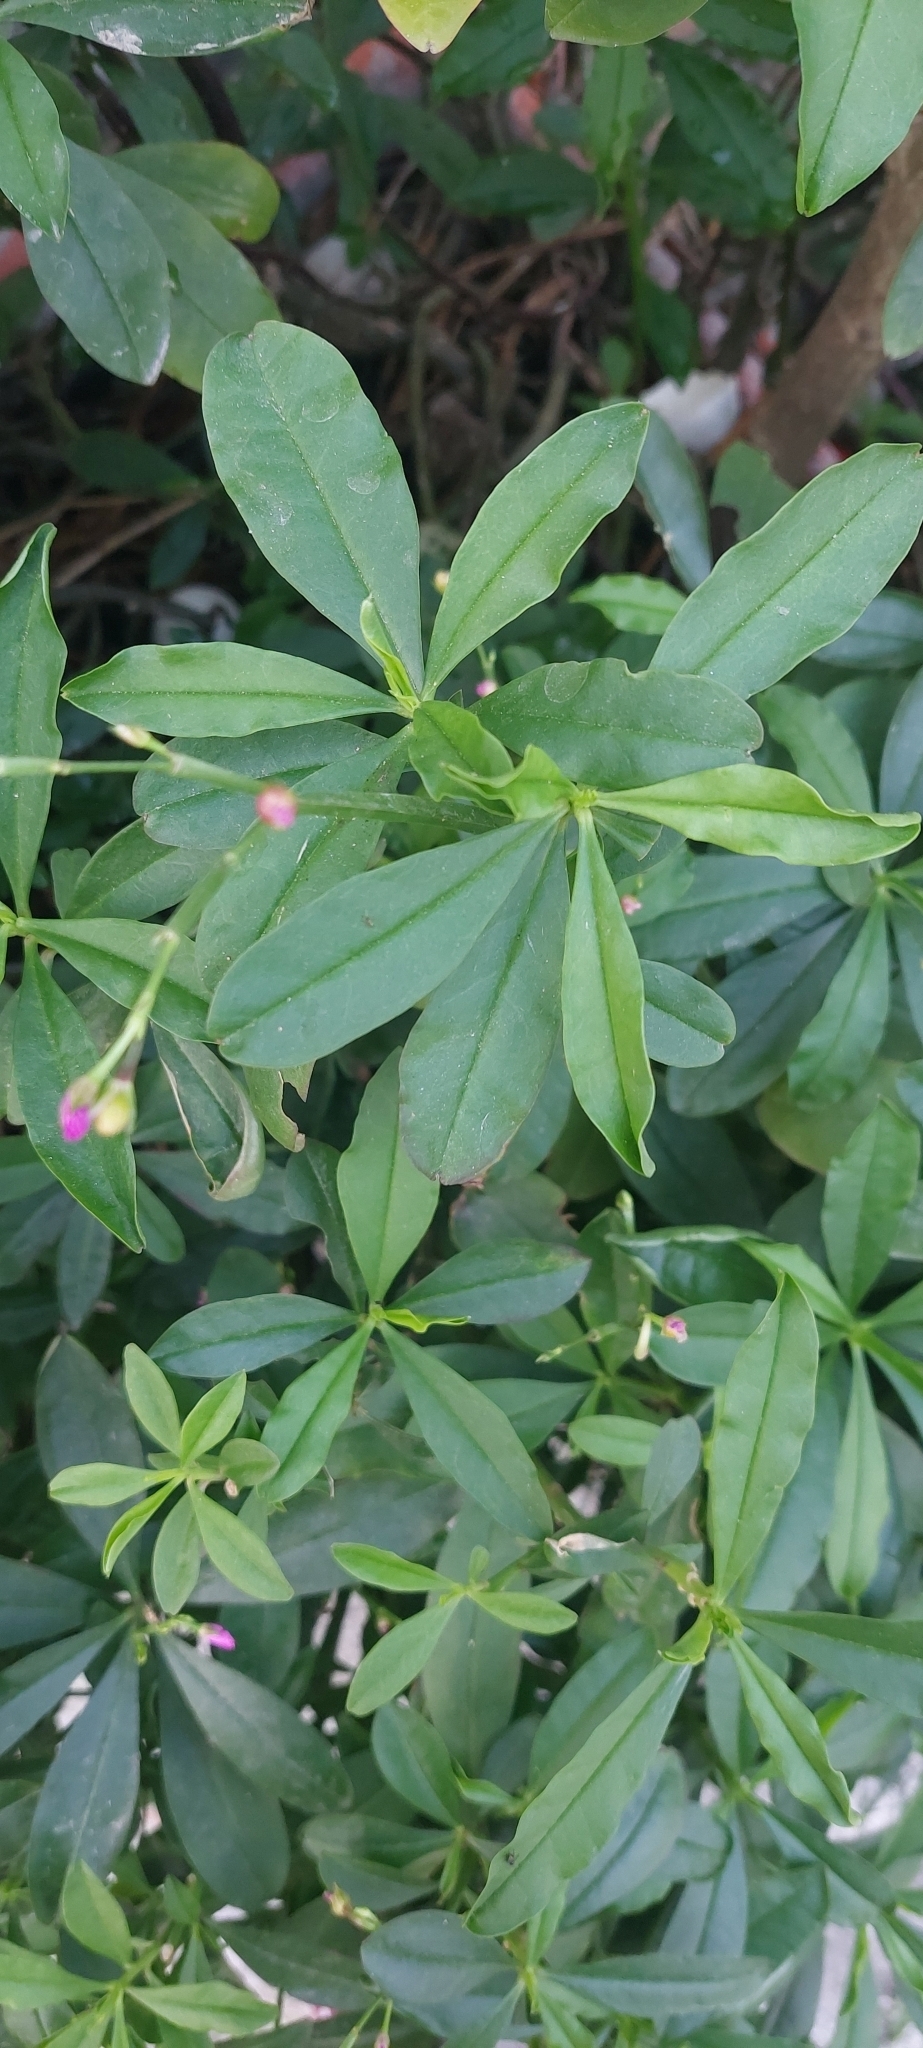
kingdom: Plantae
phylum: Tracheophyta
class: Magnoliopsida
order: Caryophyllales
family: Talinaceae
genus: Talinum
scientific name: Talinum fruticosum
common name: Verdolaga-francesa
